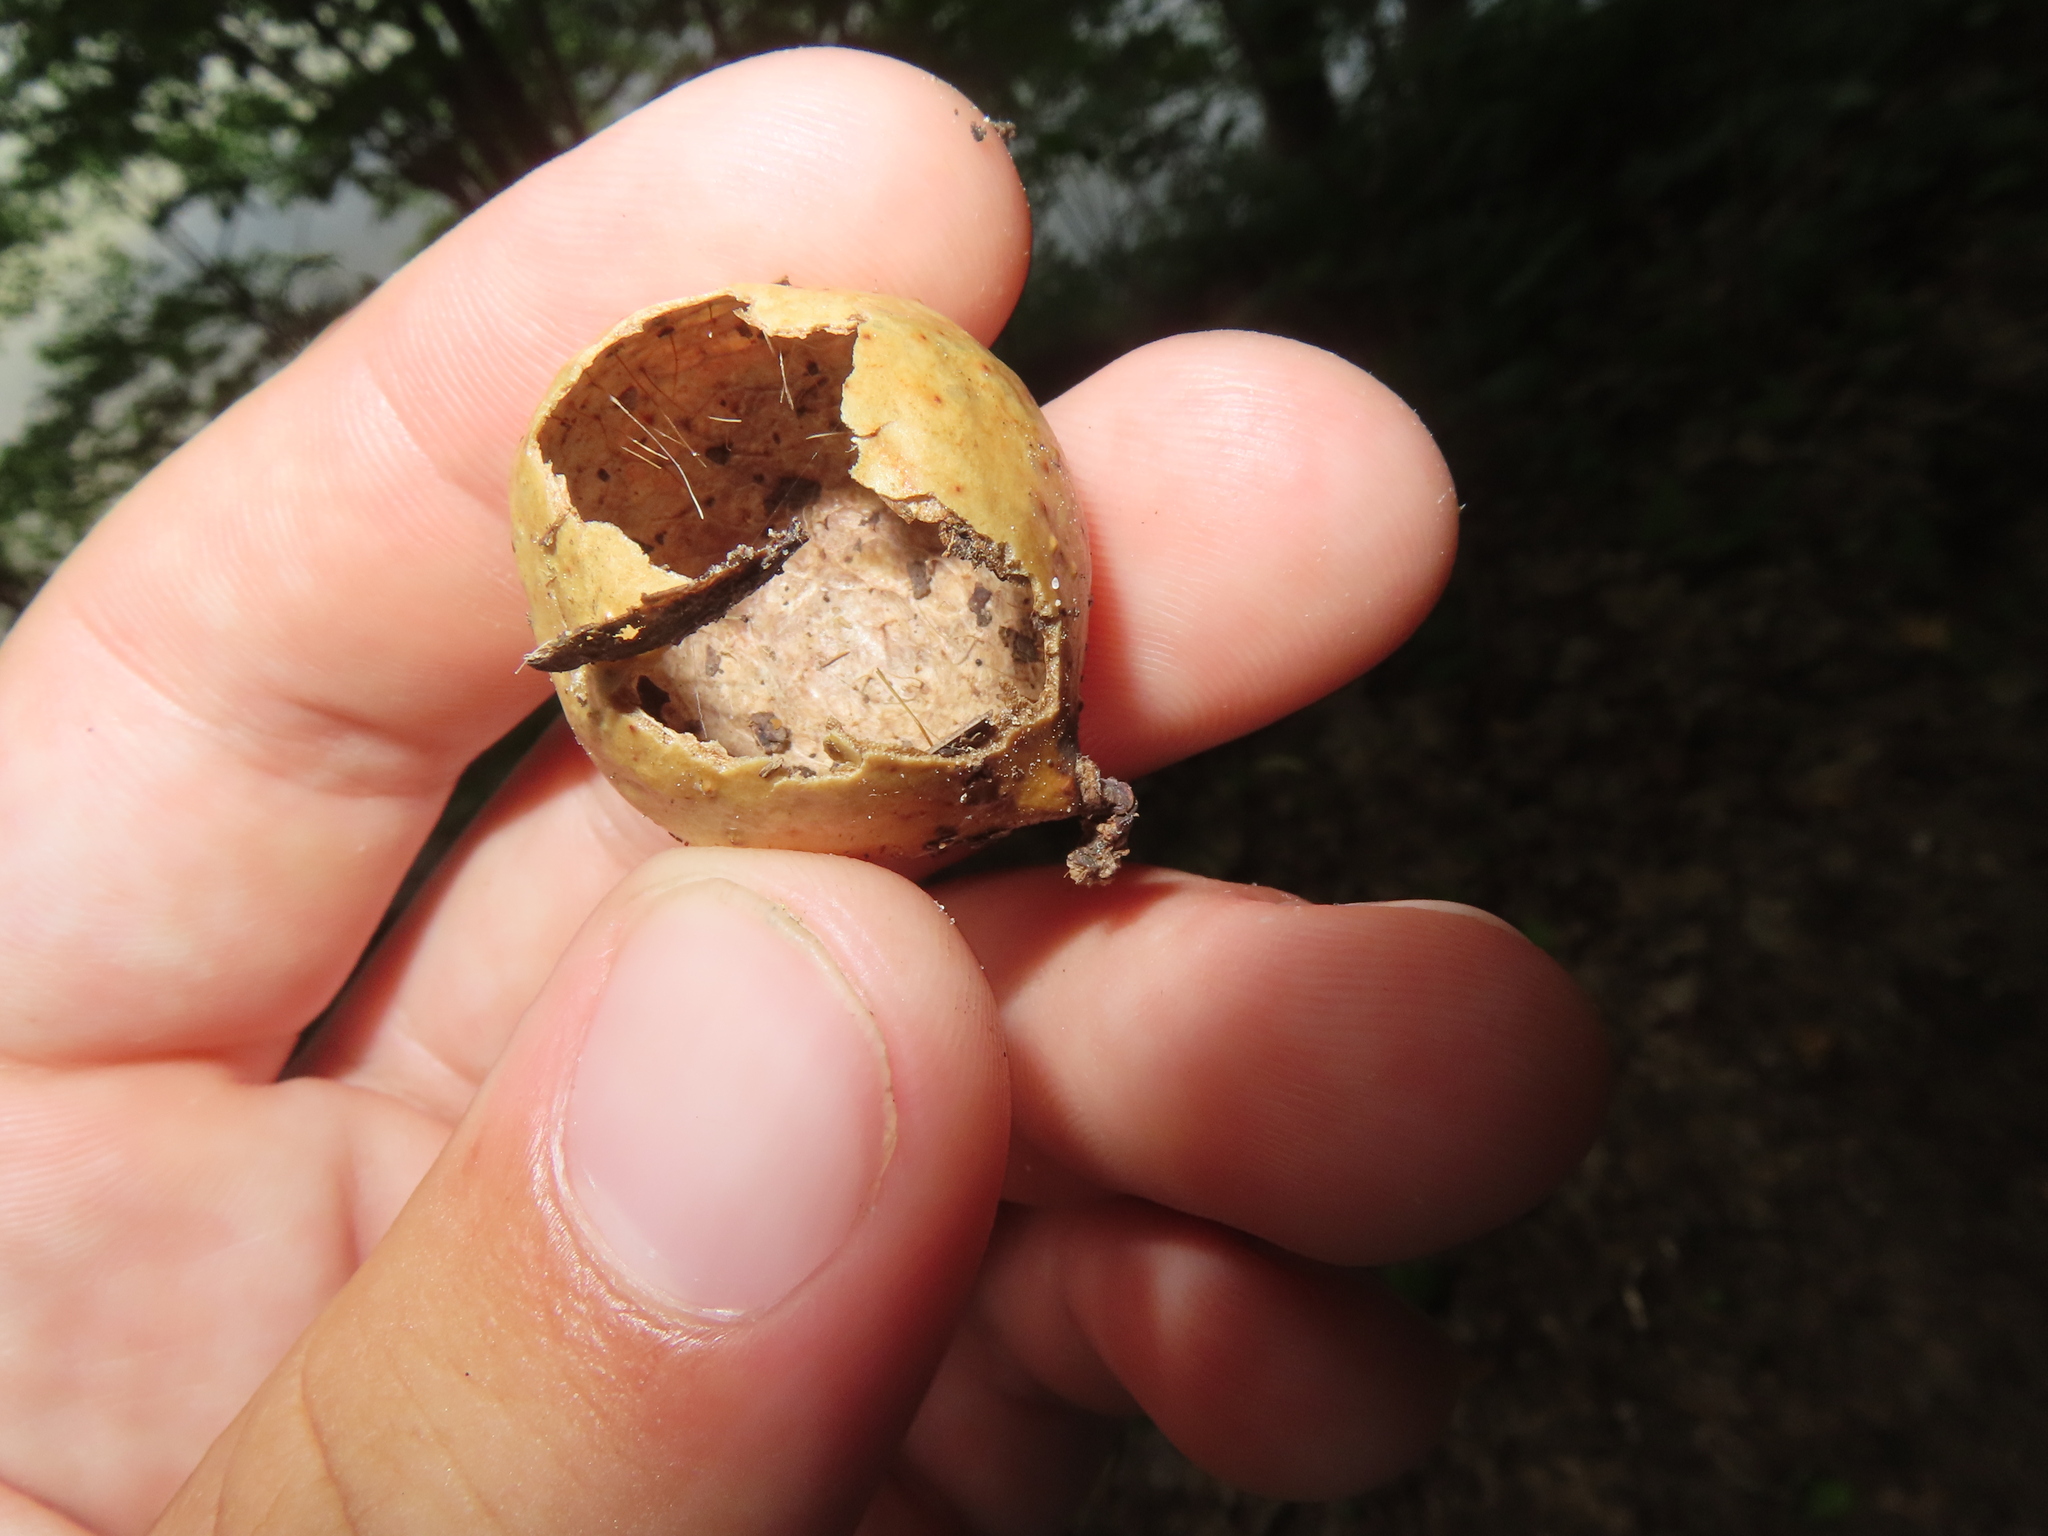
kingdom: Animalia
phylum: Arthropoda
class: Insecta
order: Hymenoptera
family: Cynipidae
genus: Amphibolips
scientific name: Amphibolips
